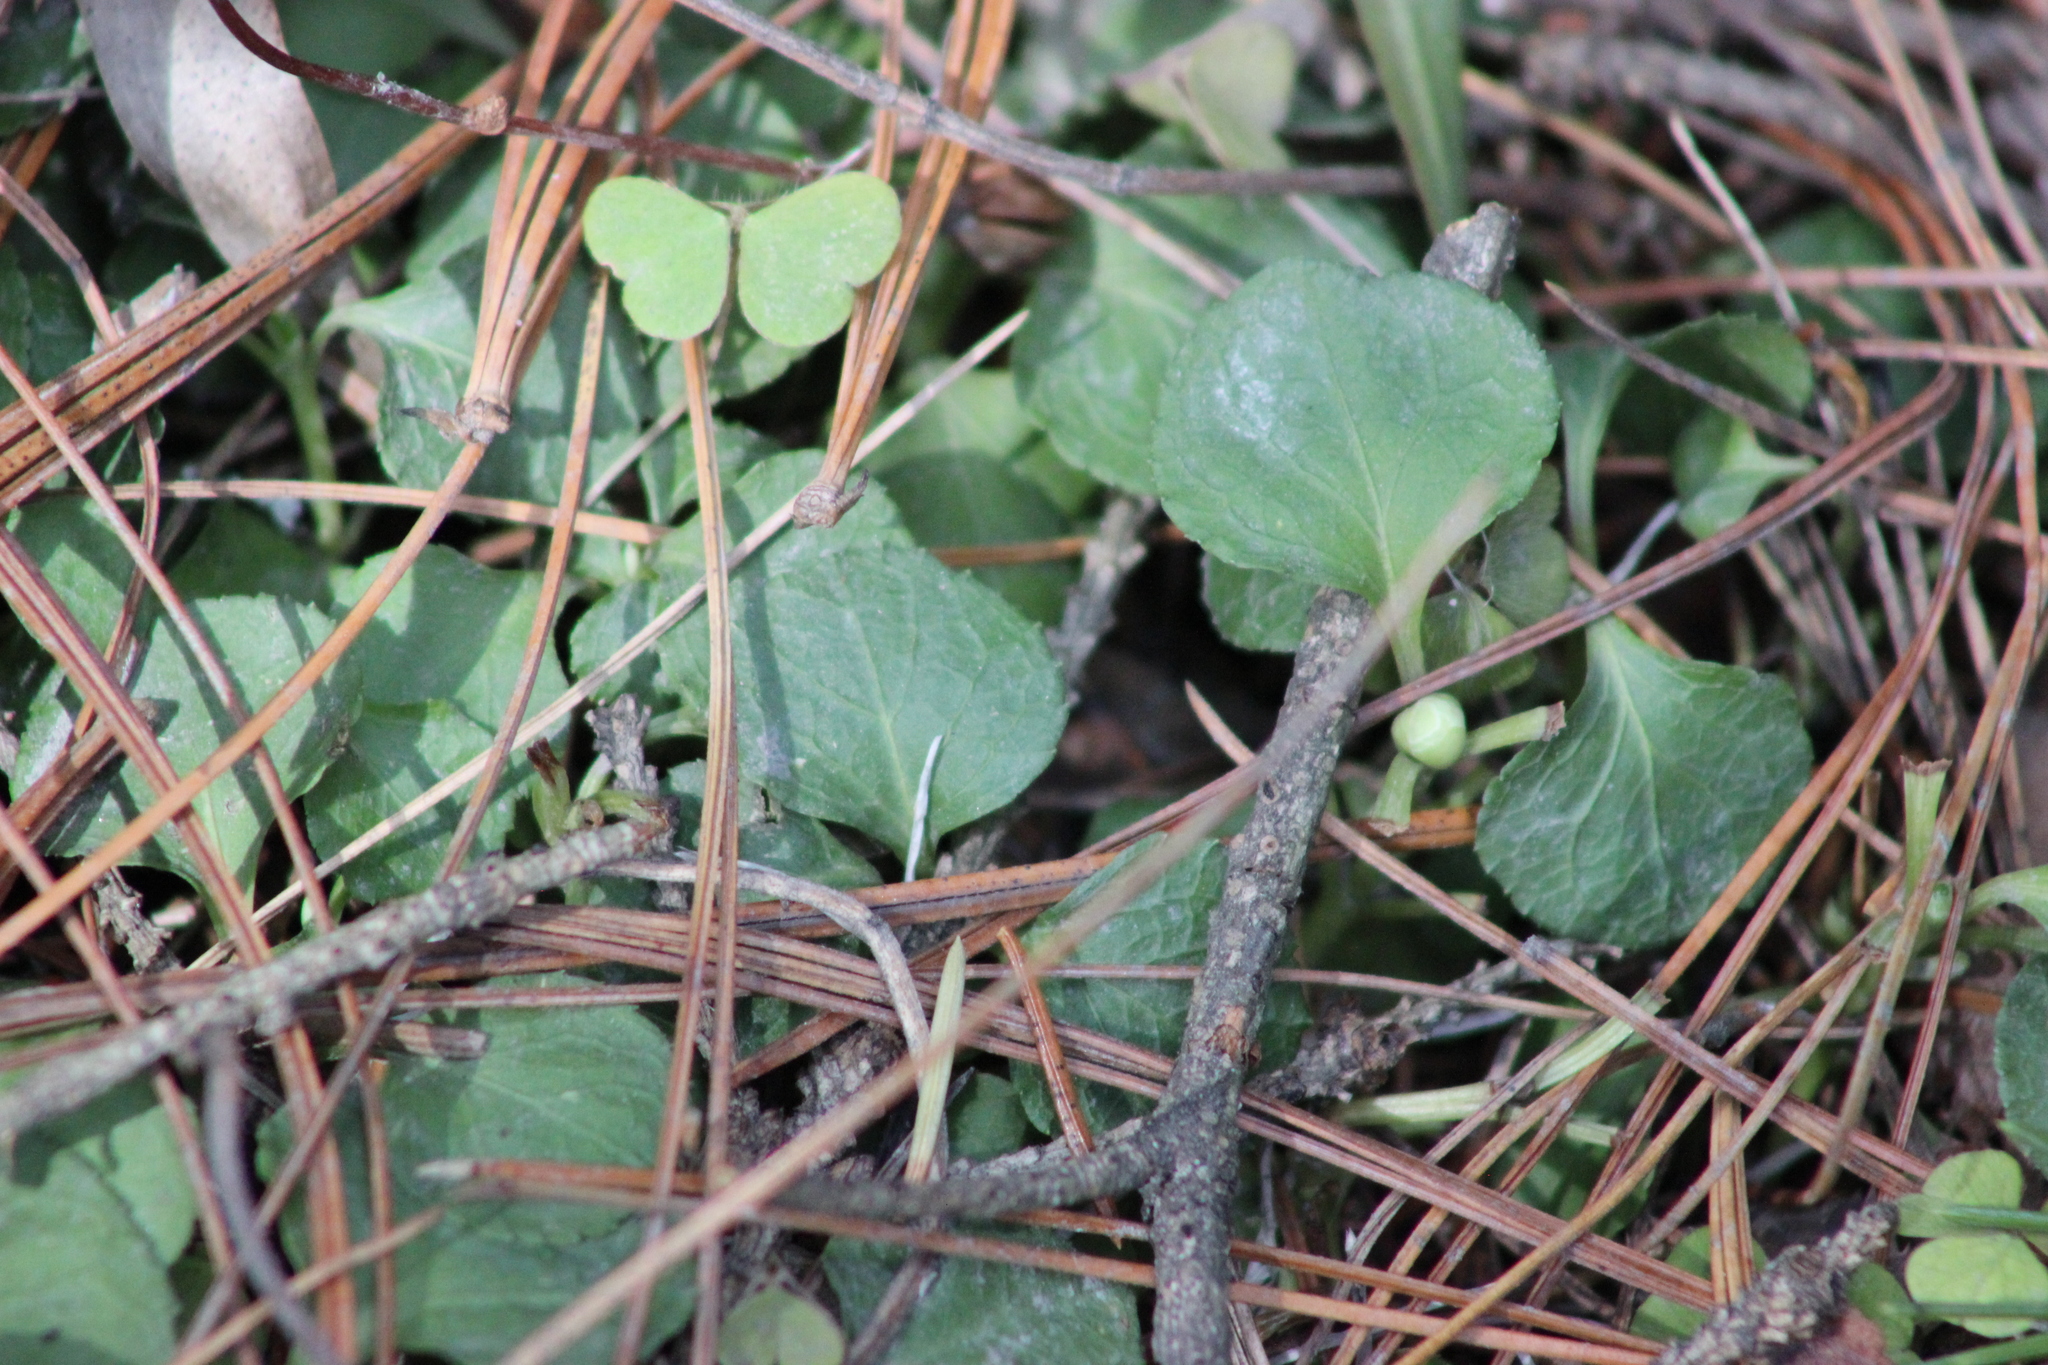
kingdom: Plantae
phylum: Tracheophyta
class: Magnoliopsida
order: Ericales
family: Ericaceae
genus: Moneses
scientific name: Moneses uniflora
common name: One-flowered wintergreen
